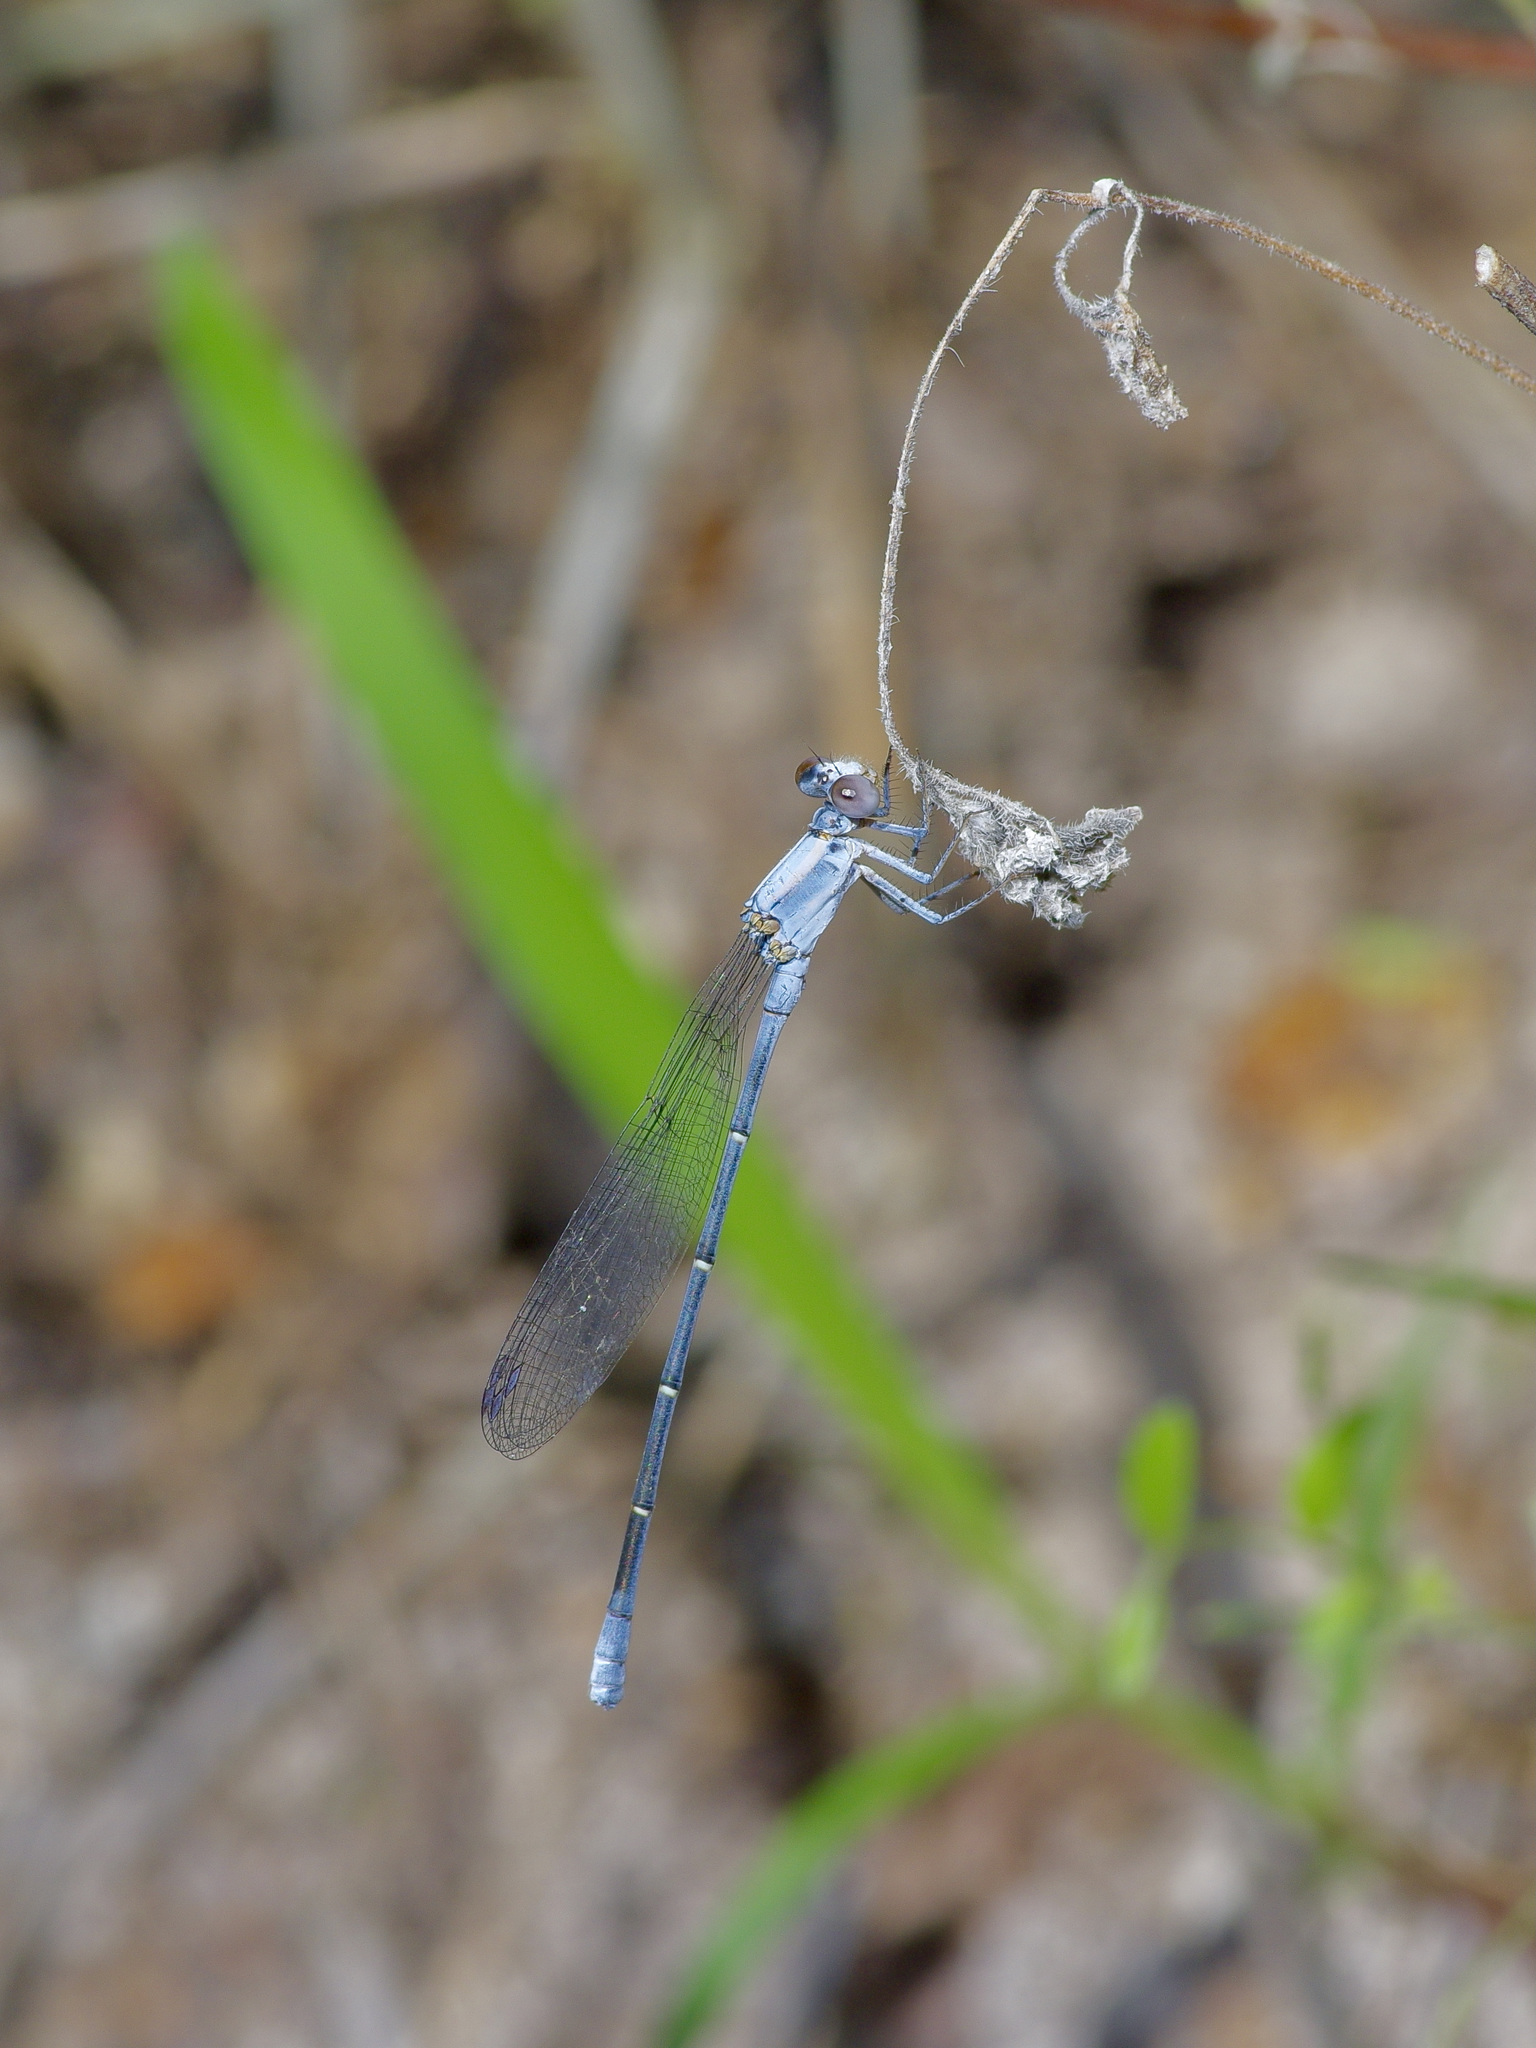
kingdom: Animalia
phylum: Arthropoda
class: Insecta
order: Odonata
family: Coenagrionidae
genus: Argia
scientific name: Argia moesta
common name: Powdered dancer
